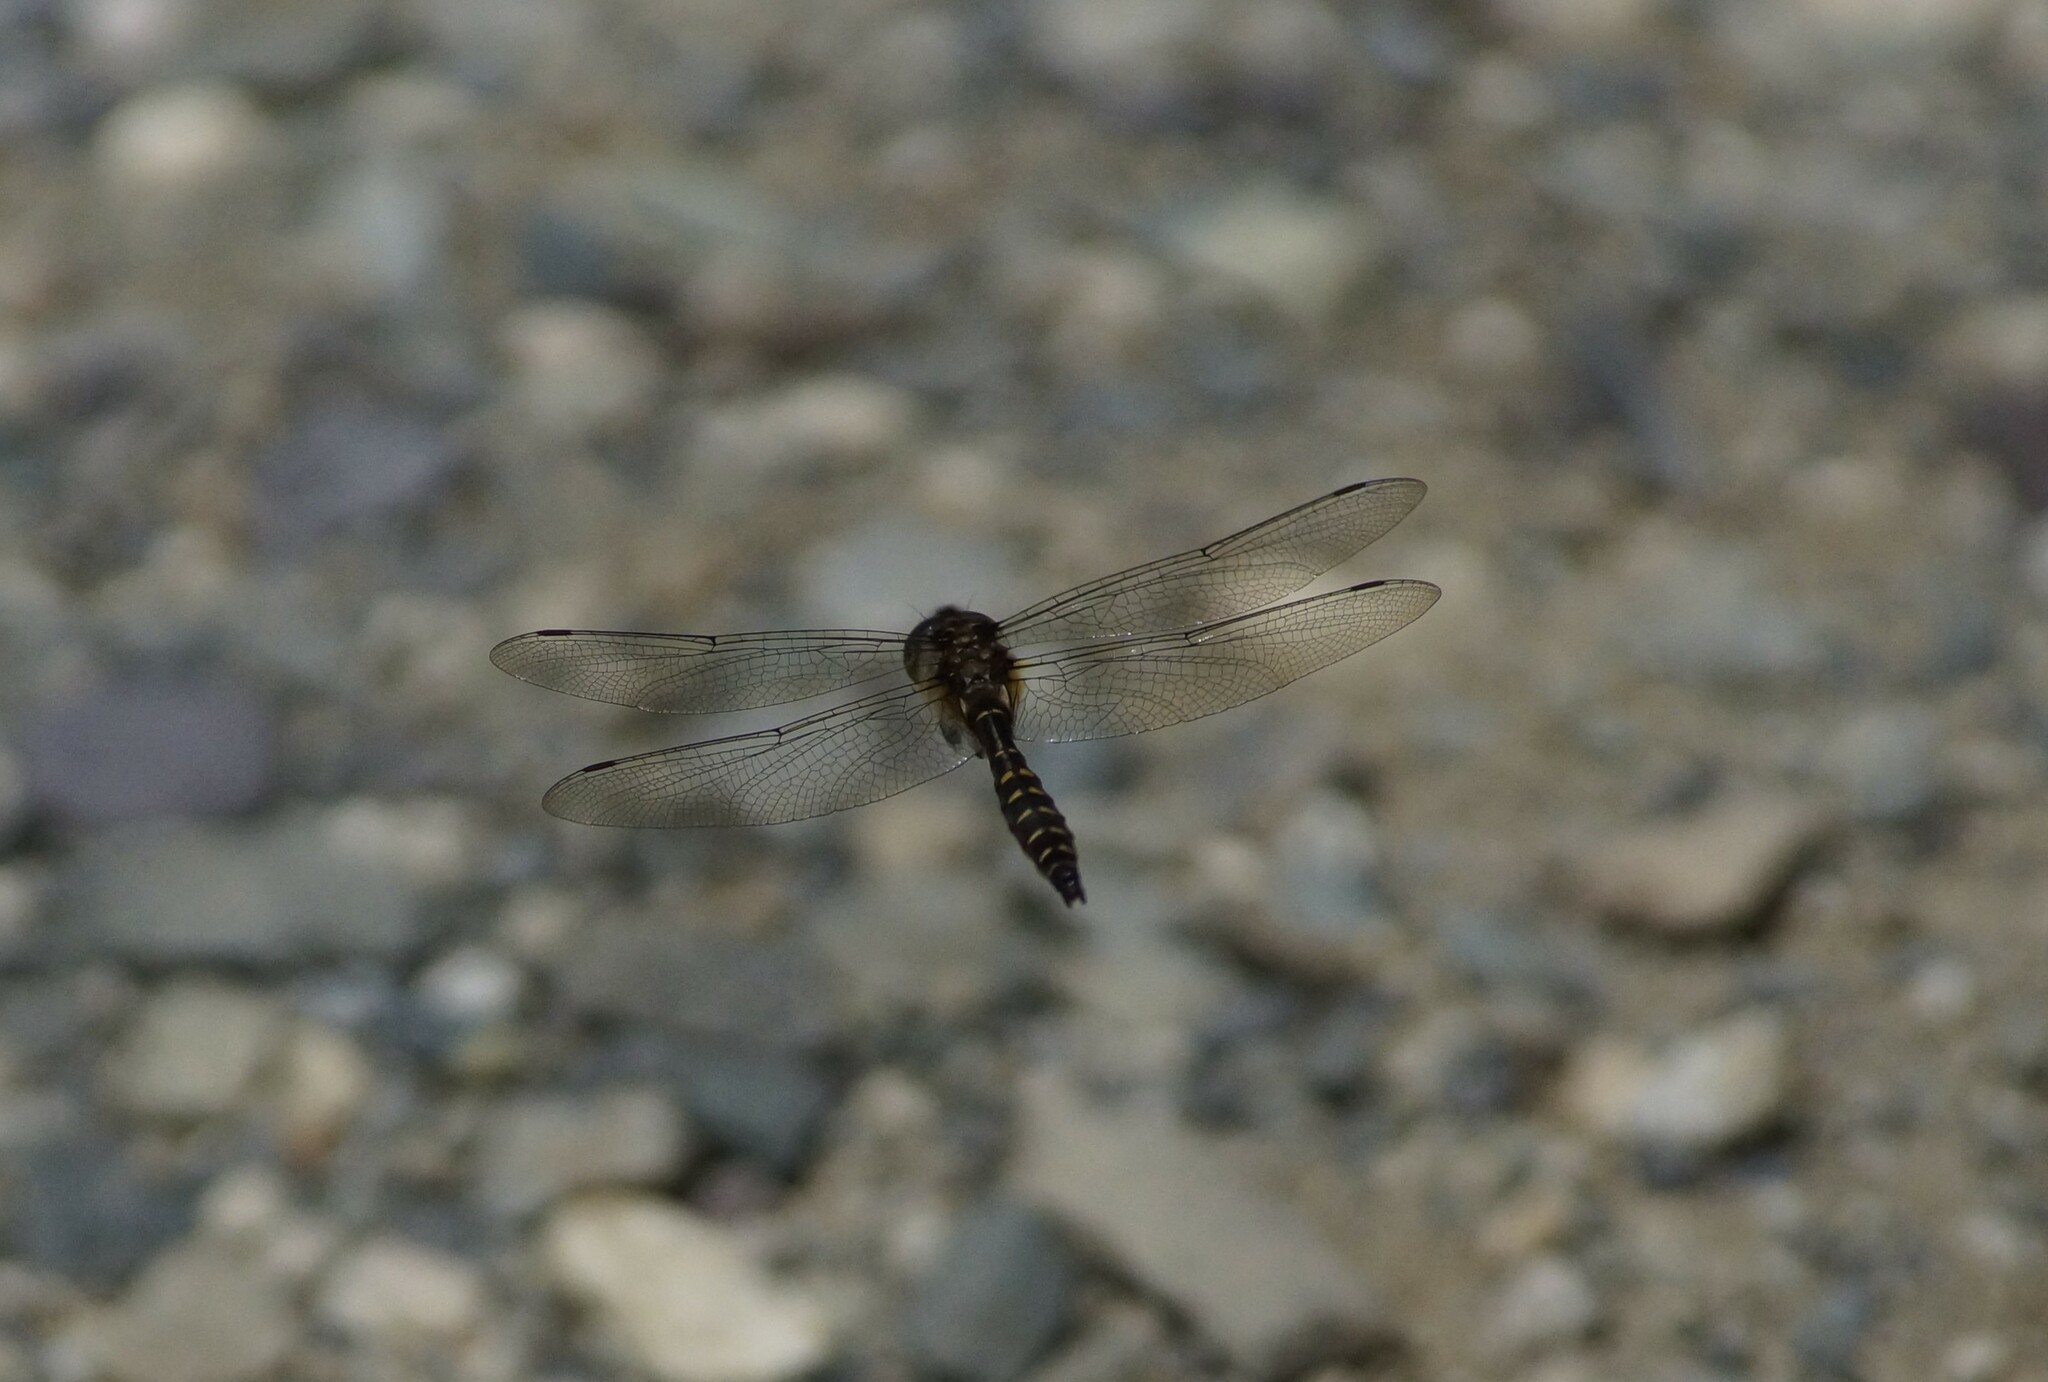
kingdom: Animalia
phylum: Arthropoda
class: Insecta
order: Odonata
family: Corduliidae
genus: Procordulia
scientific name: Procordulia smithii
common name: Ranger dragonfly
